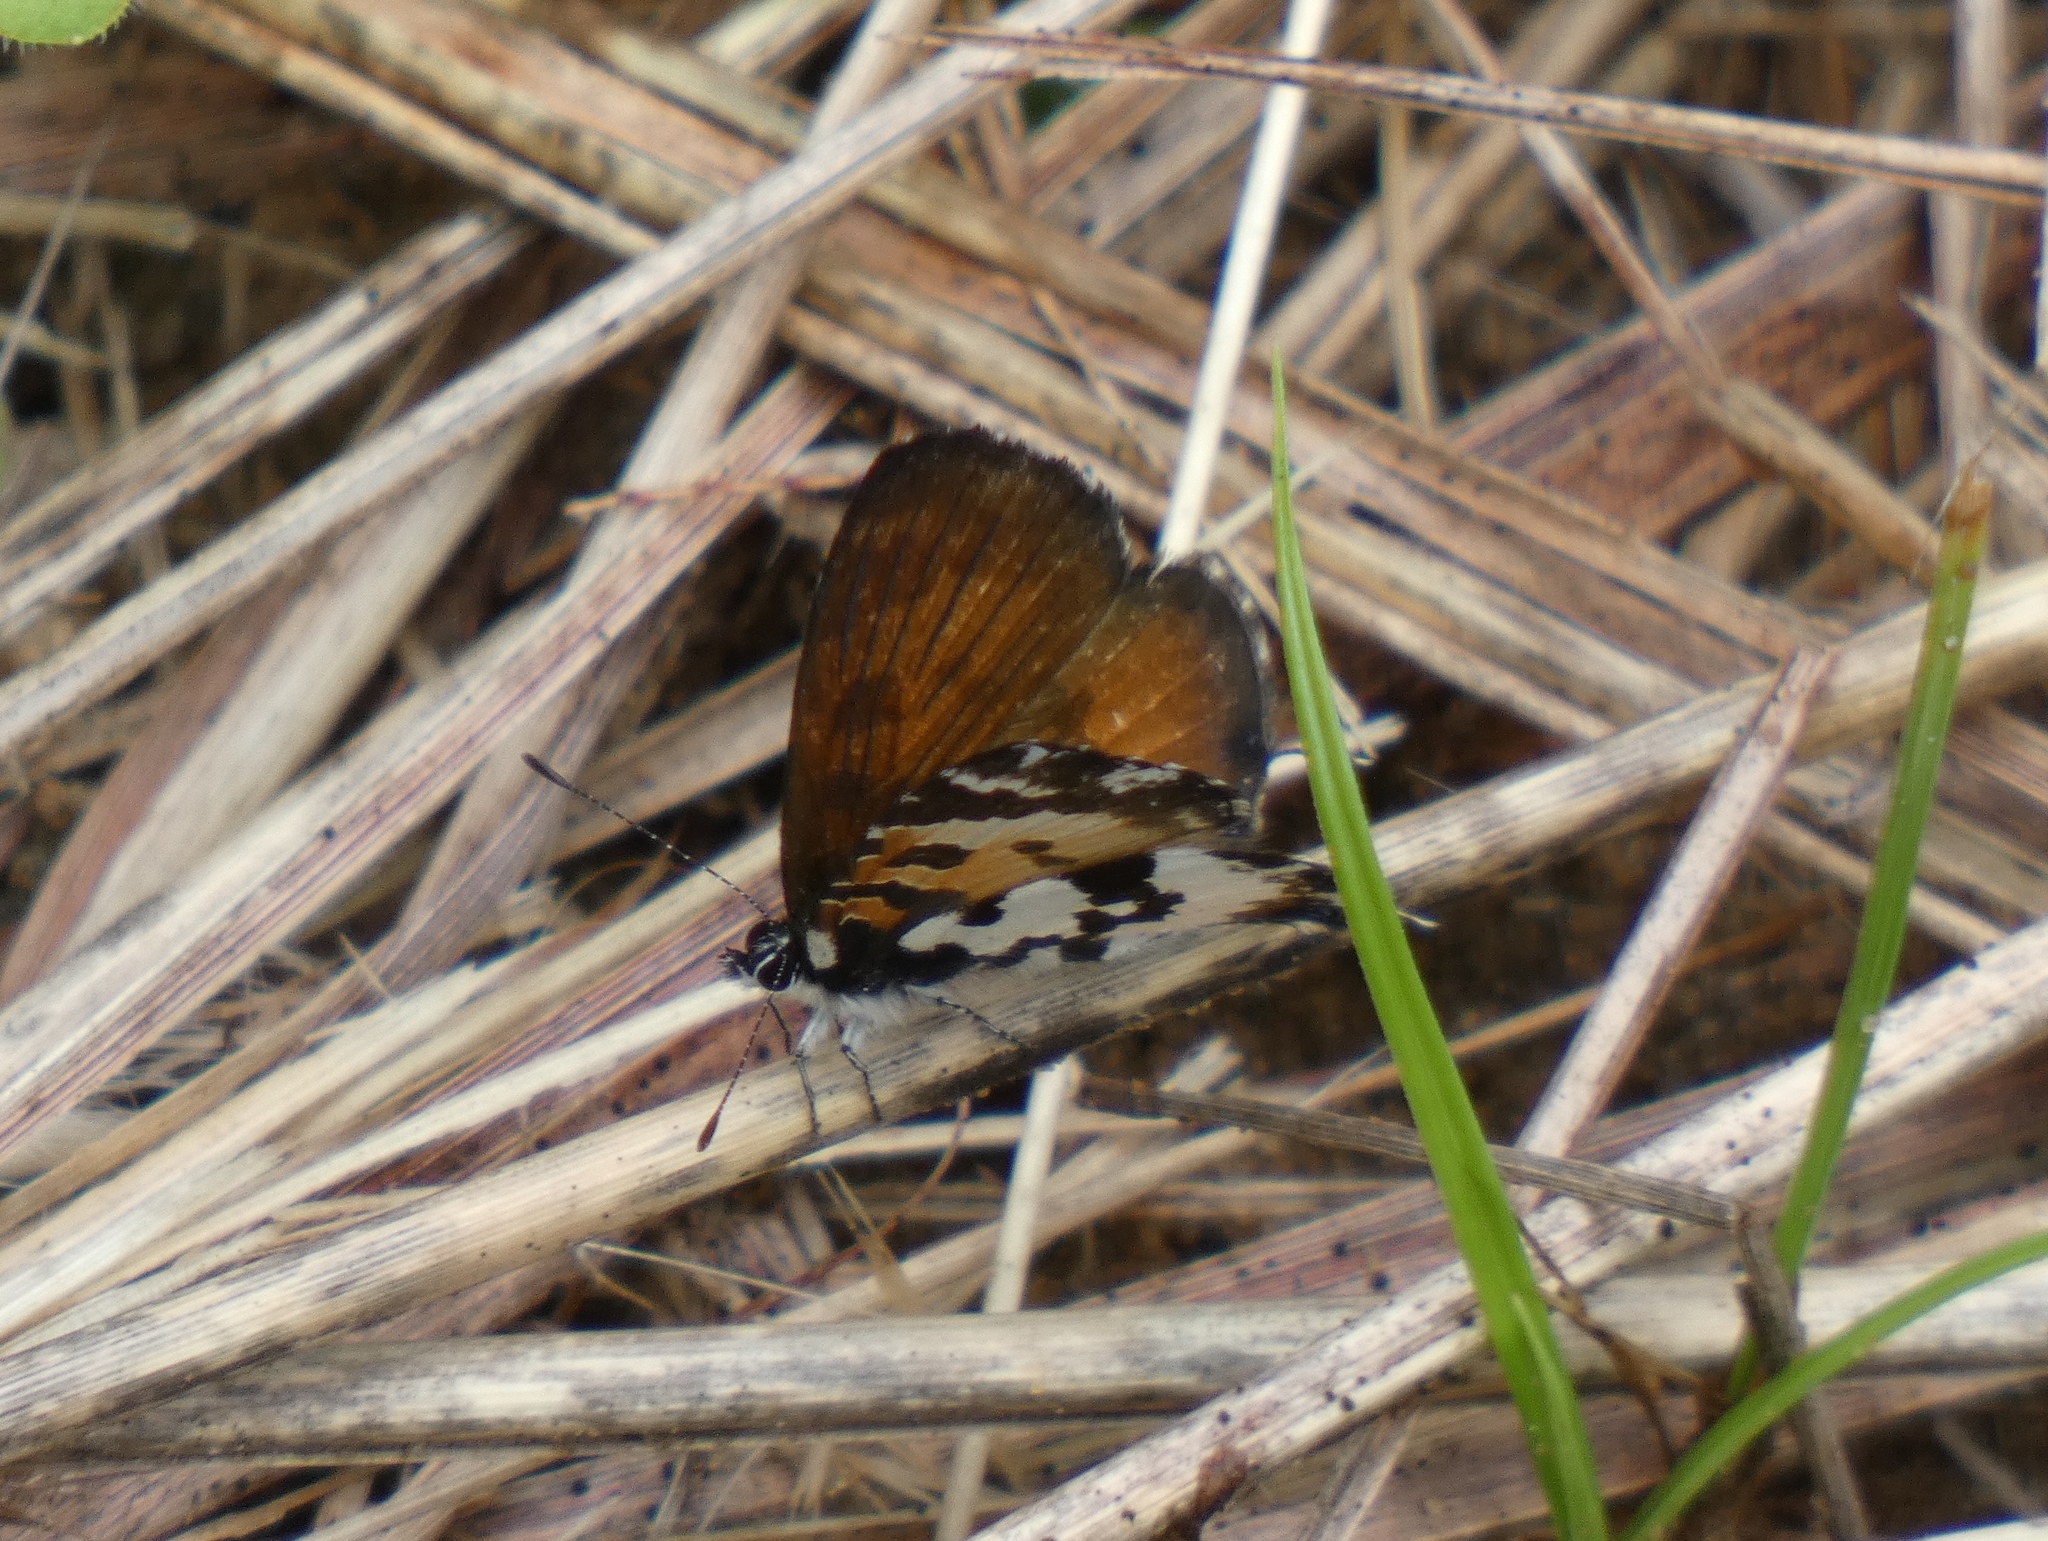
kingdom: Animalia
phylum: Arthropoda
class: Insecta
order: Lepidoptera
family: Lycaenidae
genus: Uranothauma
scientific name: Uranothauma falkensteini
